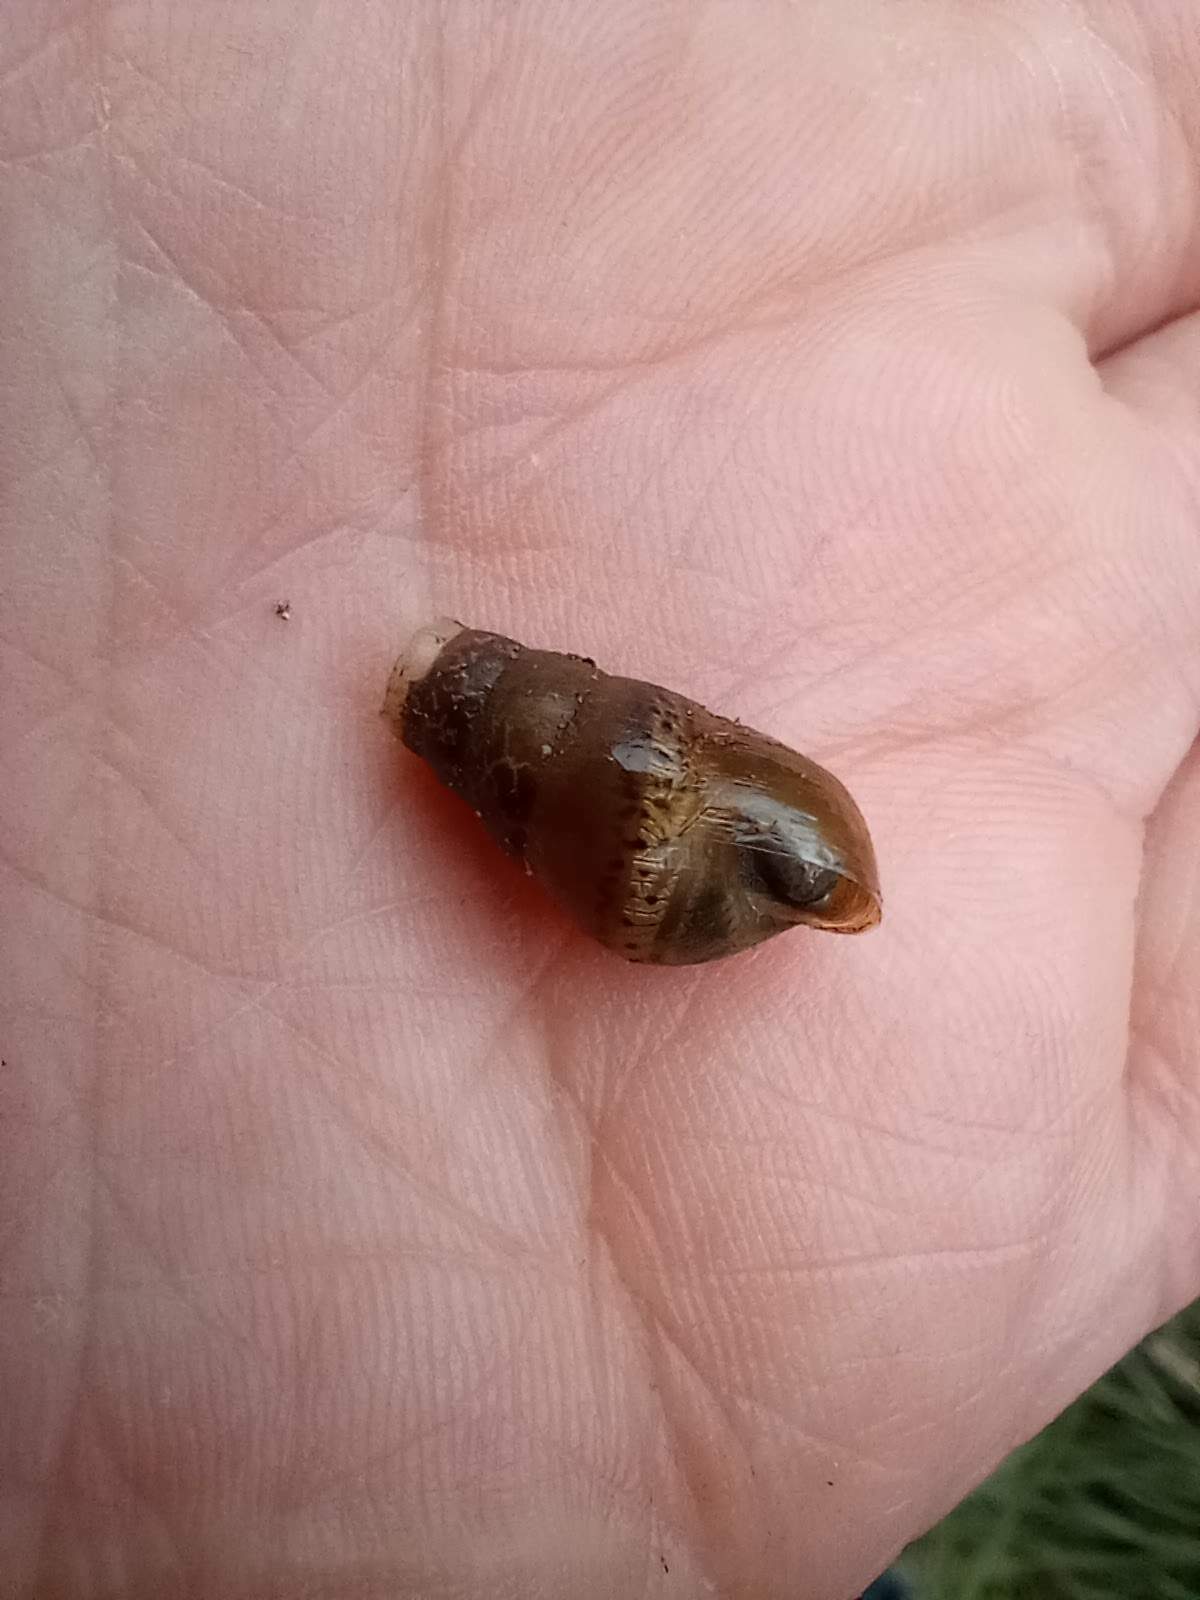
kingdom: Animalia
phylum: Mollusca
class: Gastropoda
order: Stylommatophora
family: Achatinidae
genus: Rumina
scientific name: Rumina decollata
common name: Decollate snail
